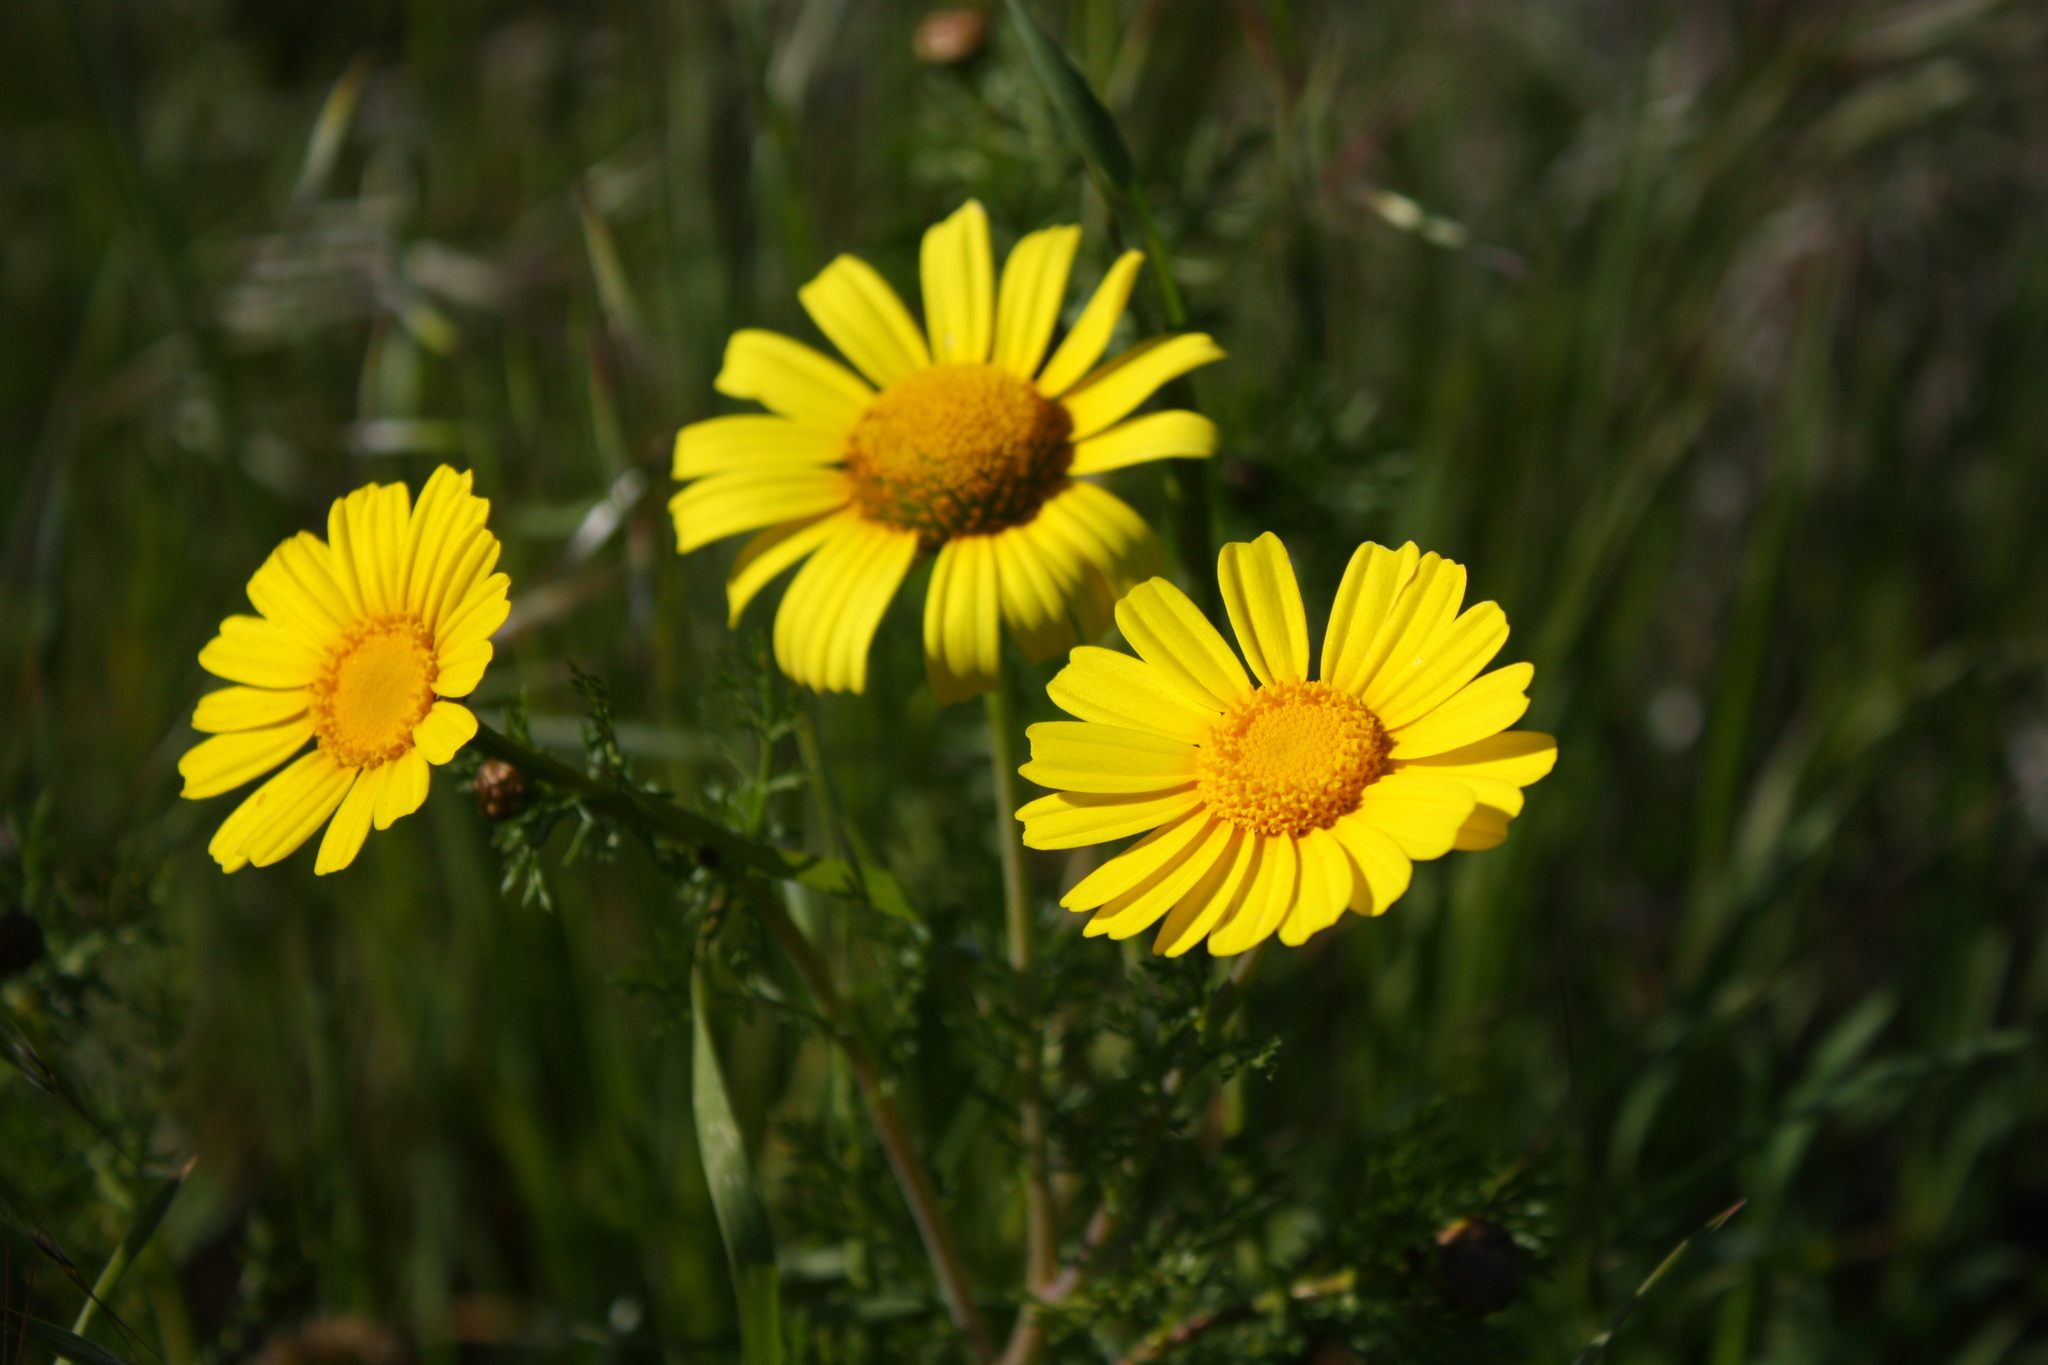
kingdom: Plantae
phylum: Tracheophyta
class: Magnoliopsida
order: Asterales
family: Asteraceae
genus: Glebionis
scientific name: Glebionis coronaria
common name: Crowndaisy
